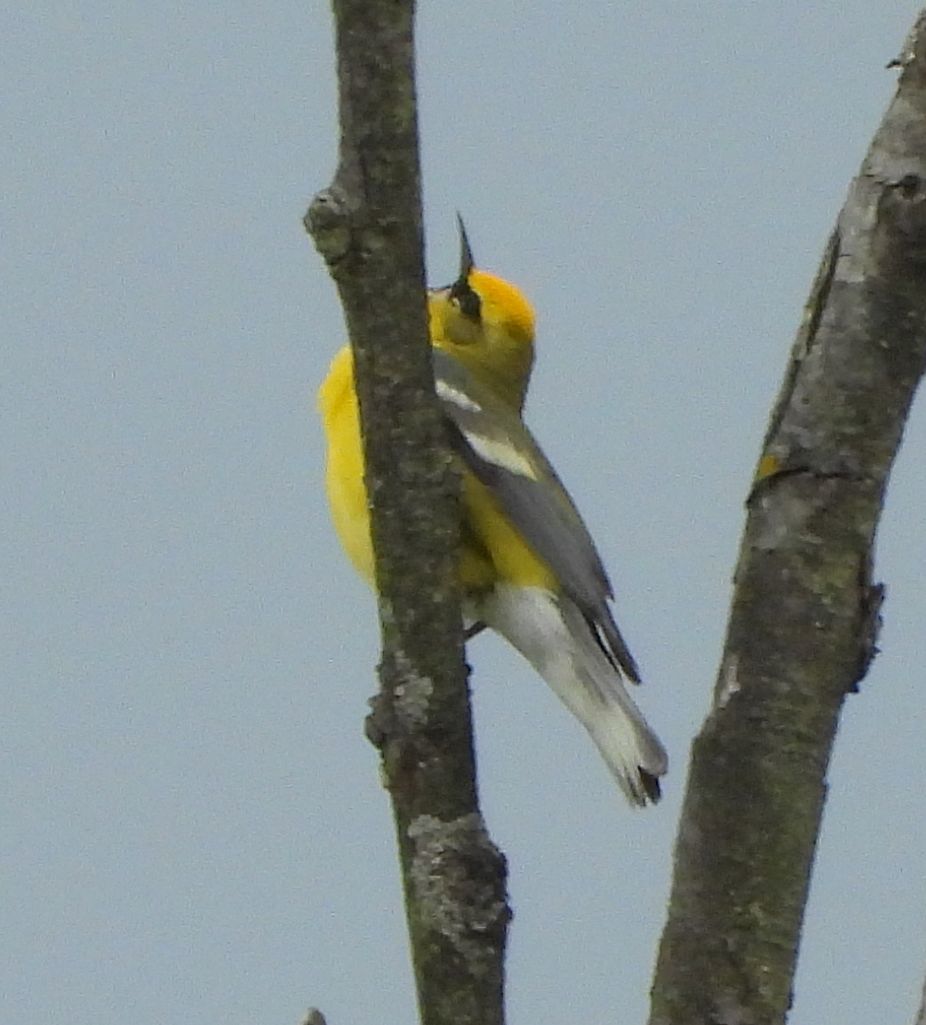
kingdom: Animalia
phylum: Chordata
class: Aves
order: Passeriformes
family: Parulidae
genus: Vermivora
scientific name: Vermivora cyanoptera
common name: Blue-winged warbler
